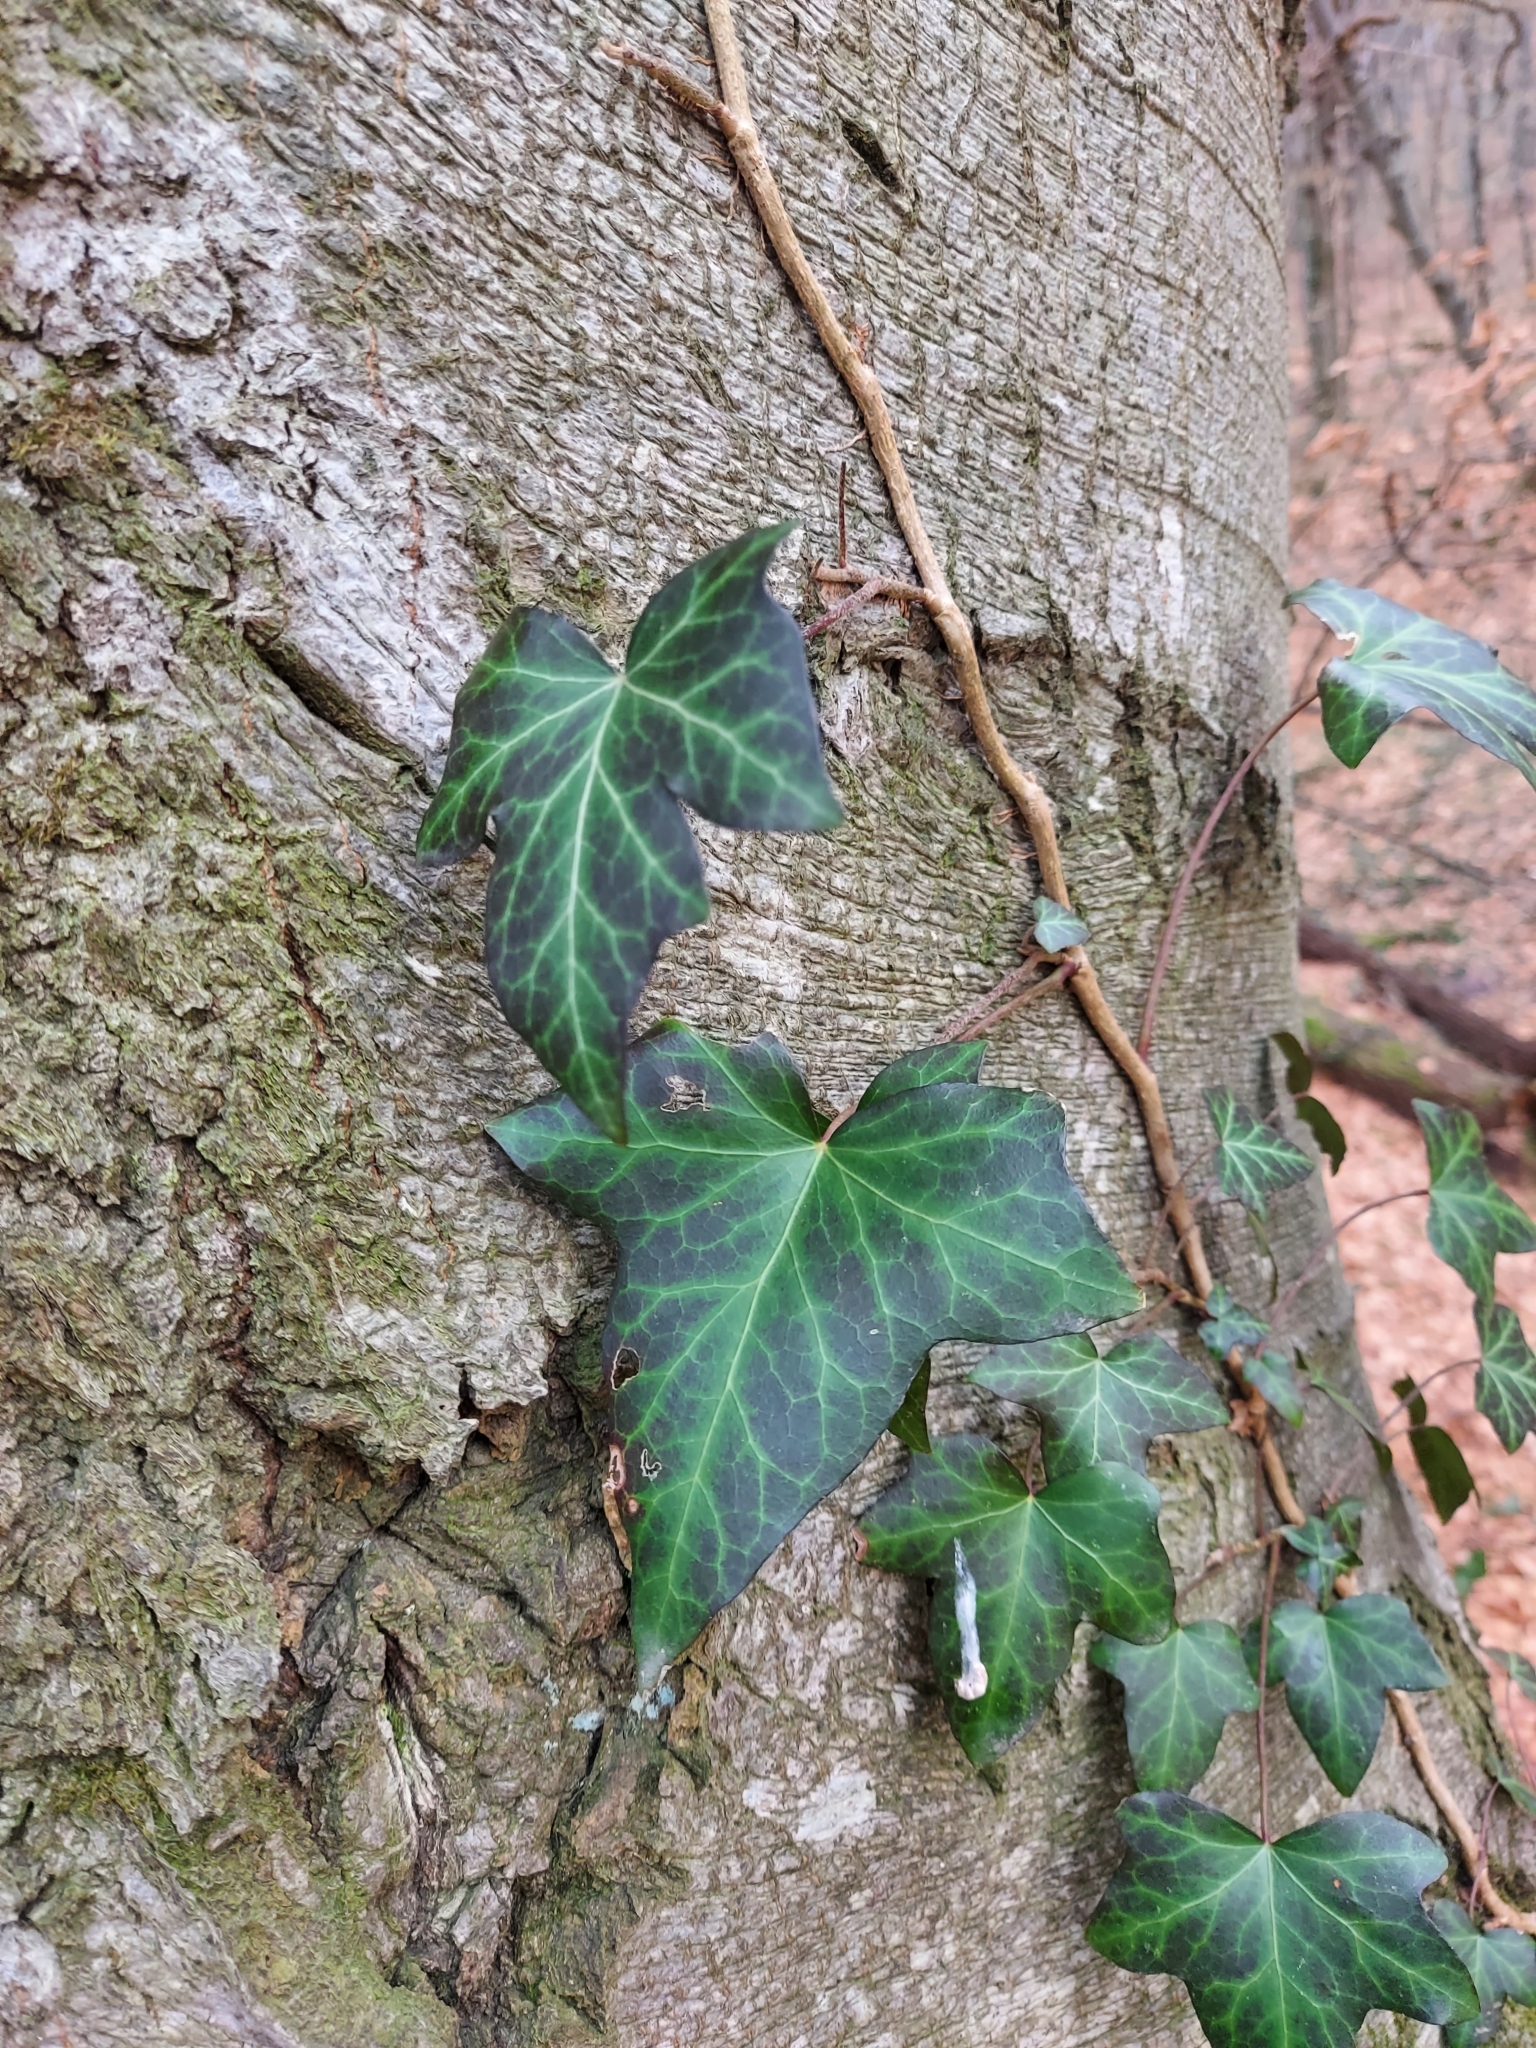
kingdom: Plantae
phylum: Tracheophyta
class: Magnoliopsida
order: Apiales
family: Araliaceae
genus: Hedera
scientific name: Hedera helix
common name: Ivy
